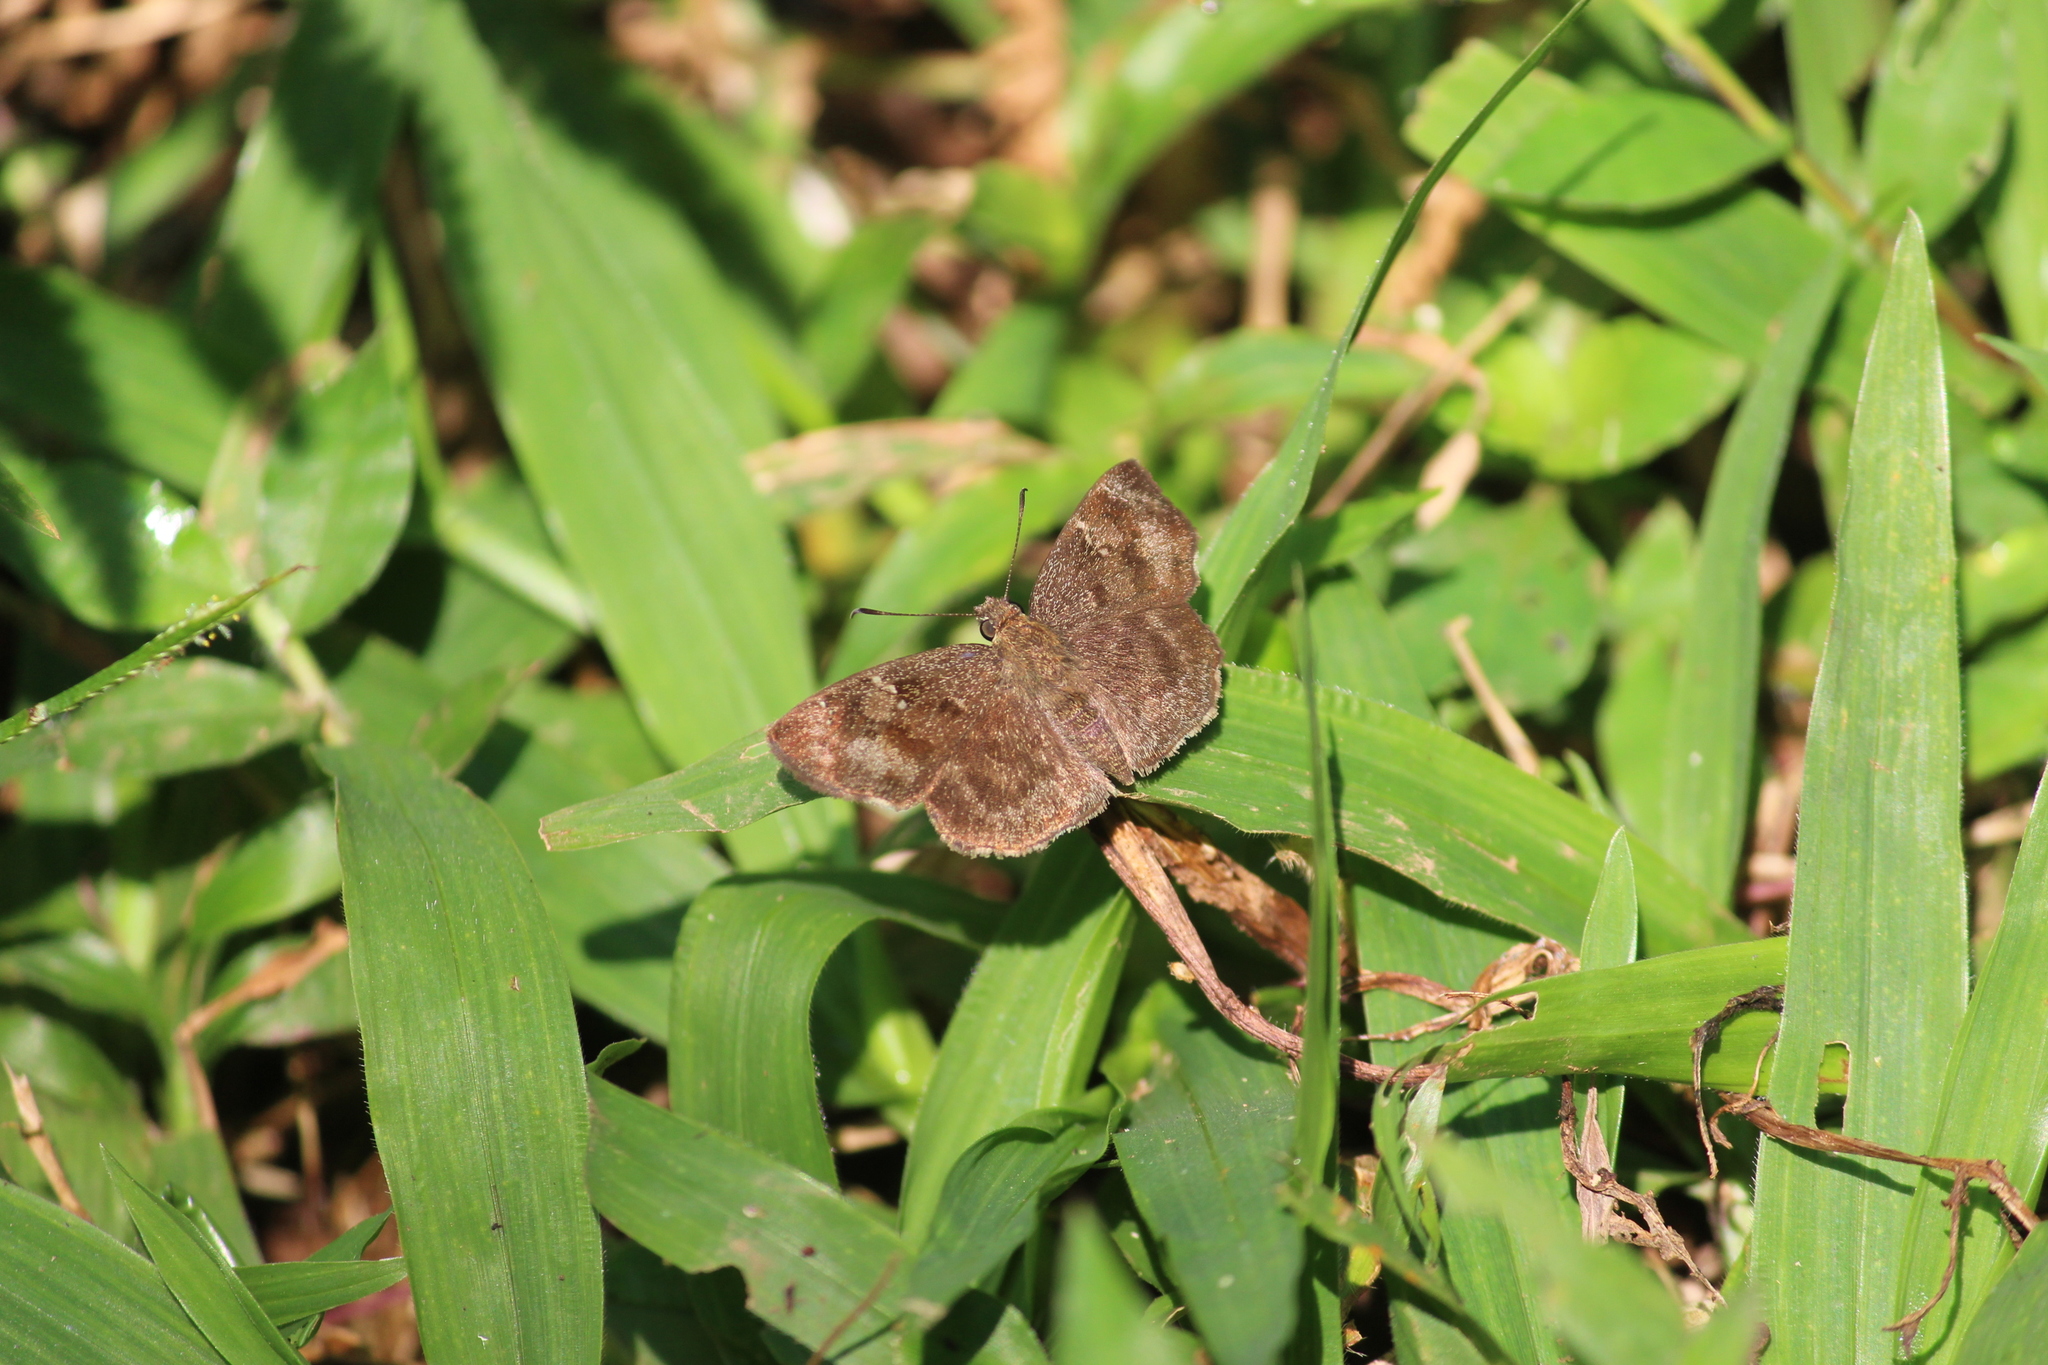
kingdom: Animalia
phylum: Arthropoda
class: Insecta
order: Lepidoptera
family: Hesperiidae
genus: Sarangesa
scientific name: Sarangesa dasahara
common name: Common small flat
